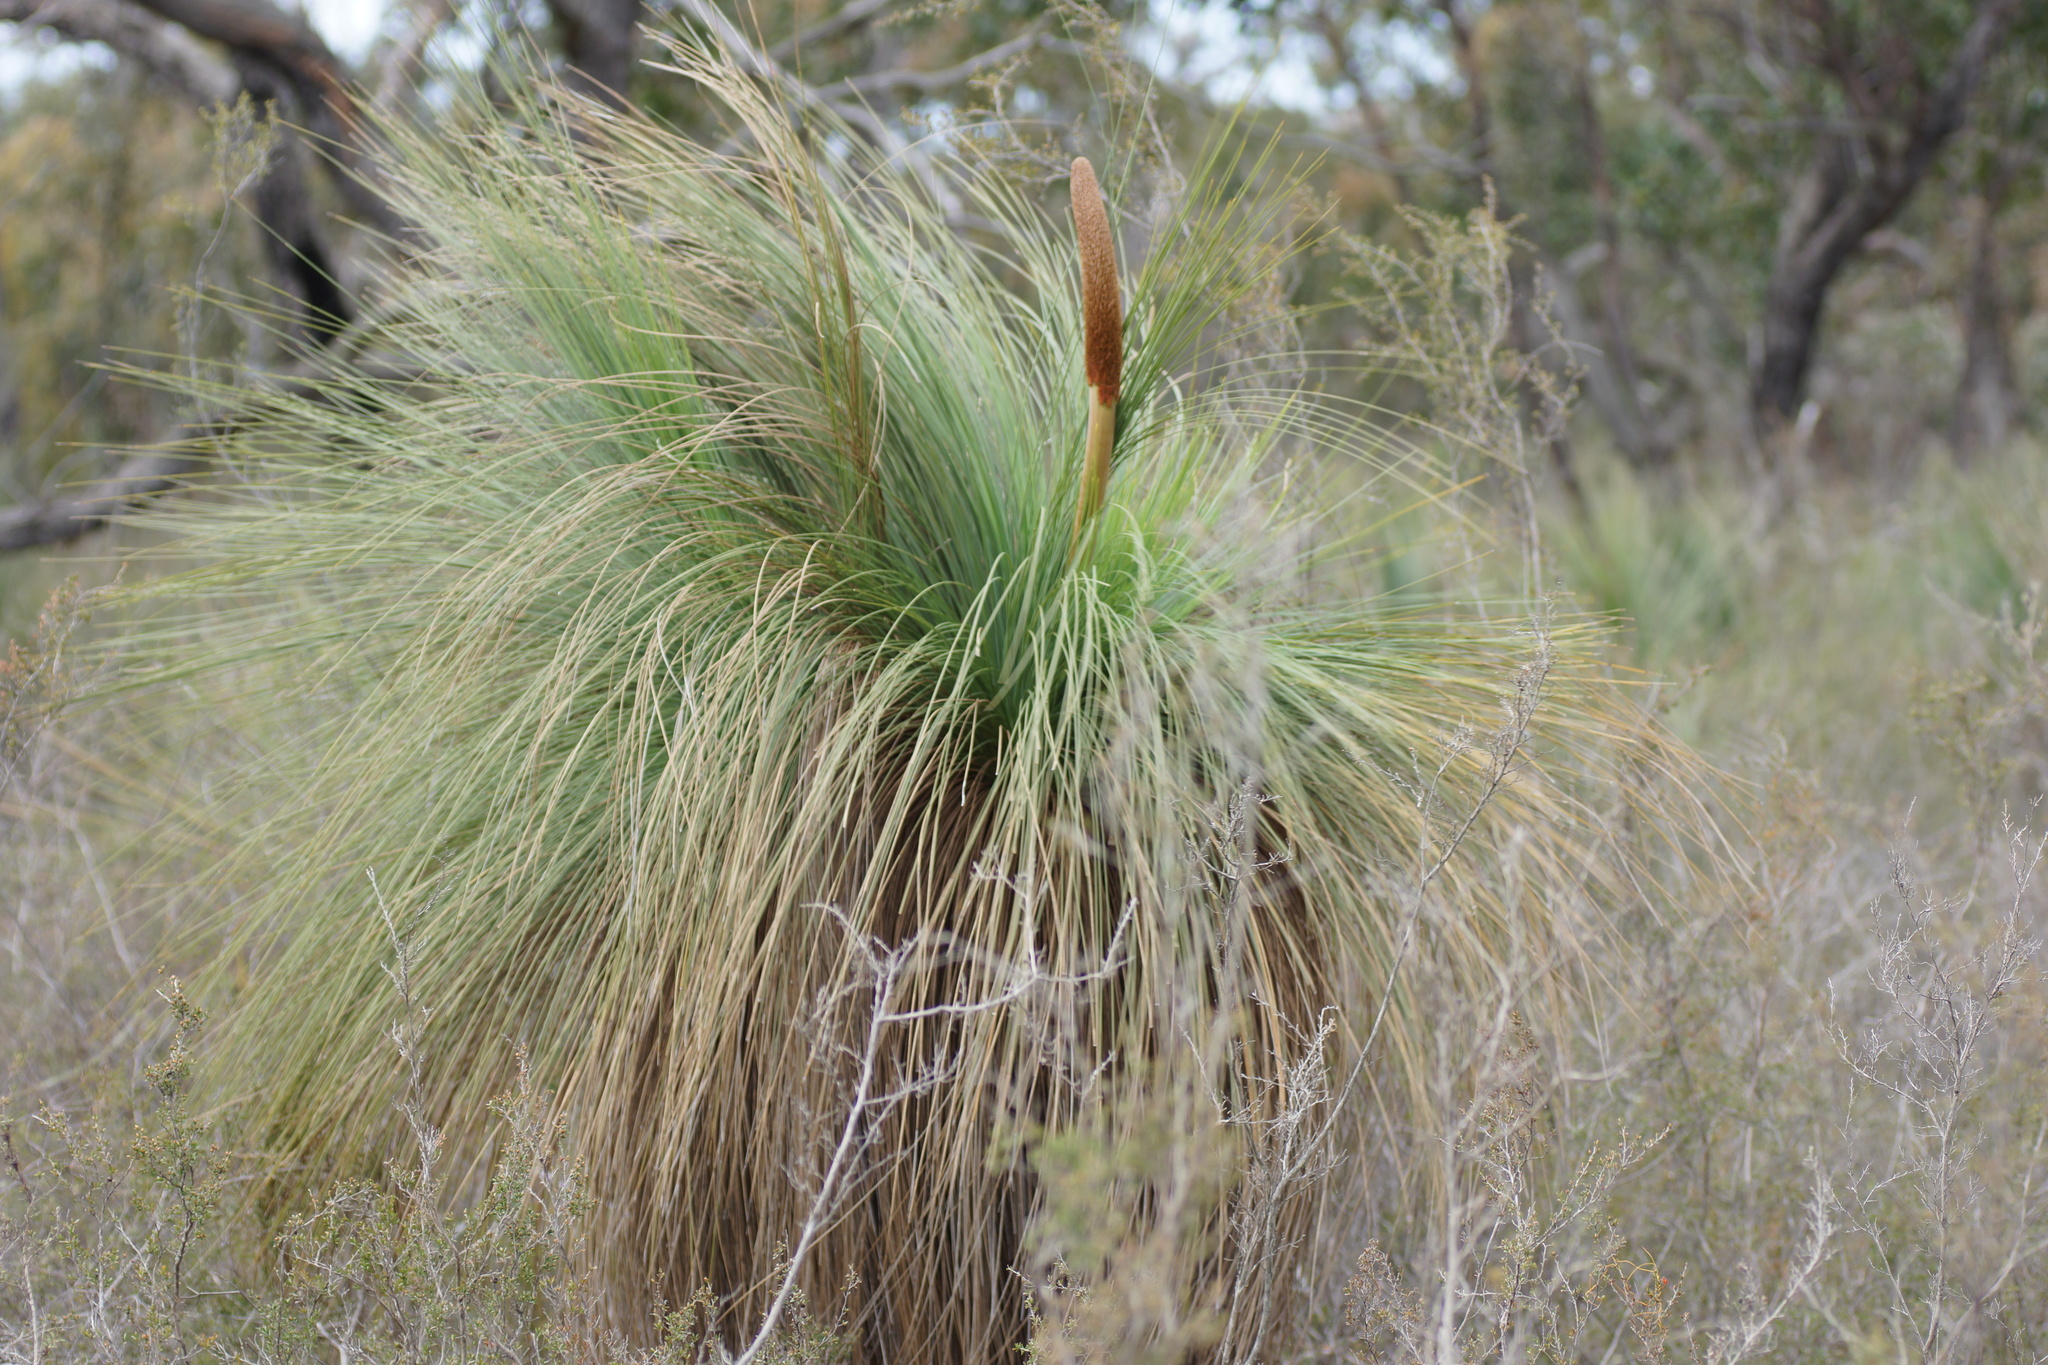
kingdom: Plantae
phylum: Tracheophyta
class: Liliopsida
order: Asparagales
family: Asphodelaceae
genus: Xanthorrhoea
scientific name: Xanthorrhoea australis
